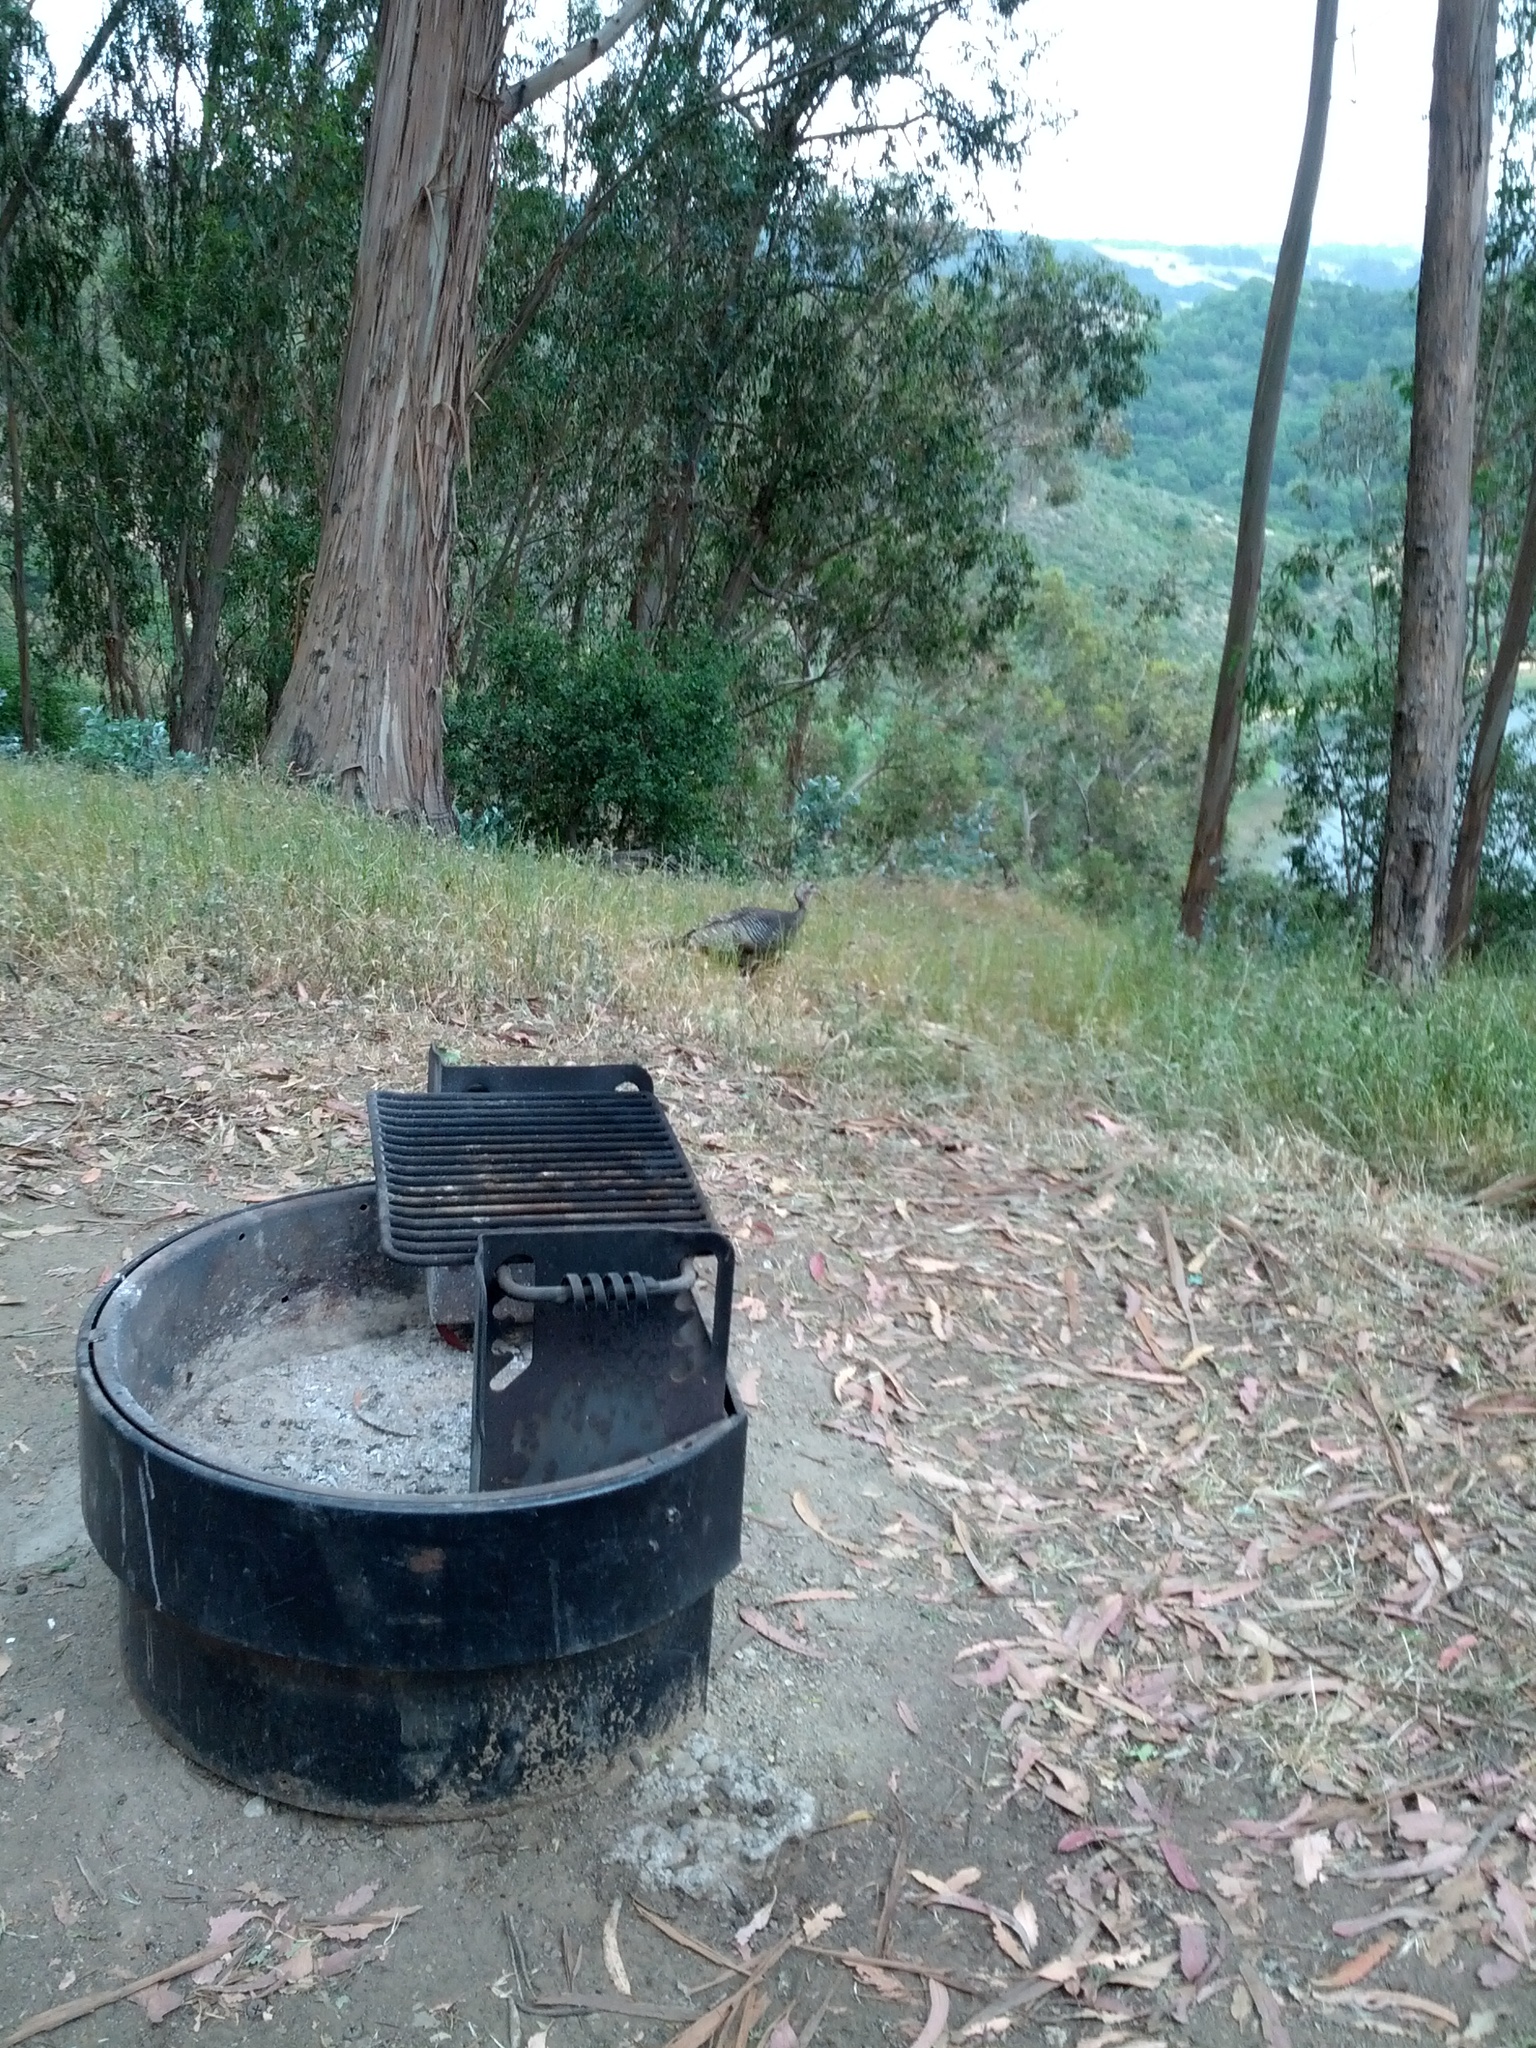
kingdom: Animalia
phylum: Chordata
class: Aves
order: Galliformes
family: Phasianidae
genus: Meleagris
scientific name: Meleagris gallopavo
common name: Wild turkey
